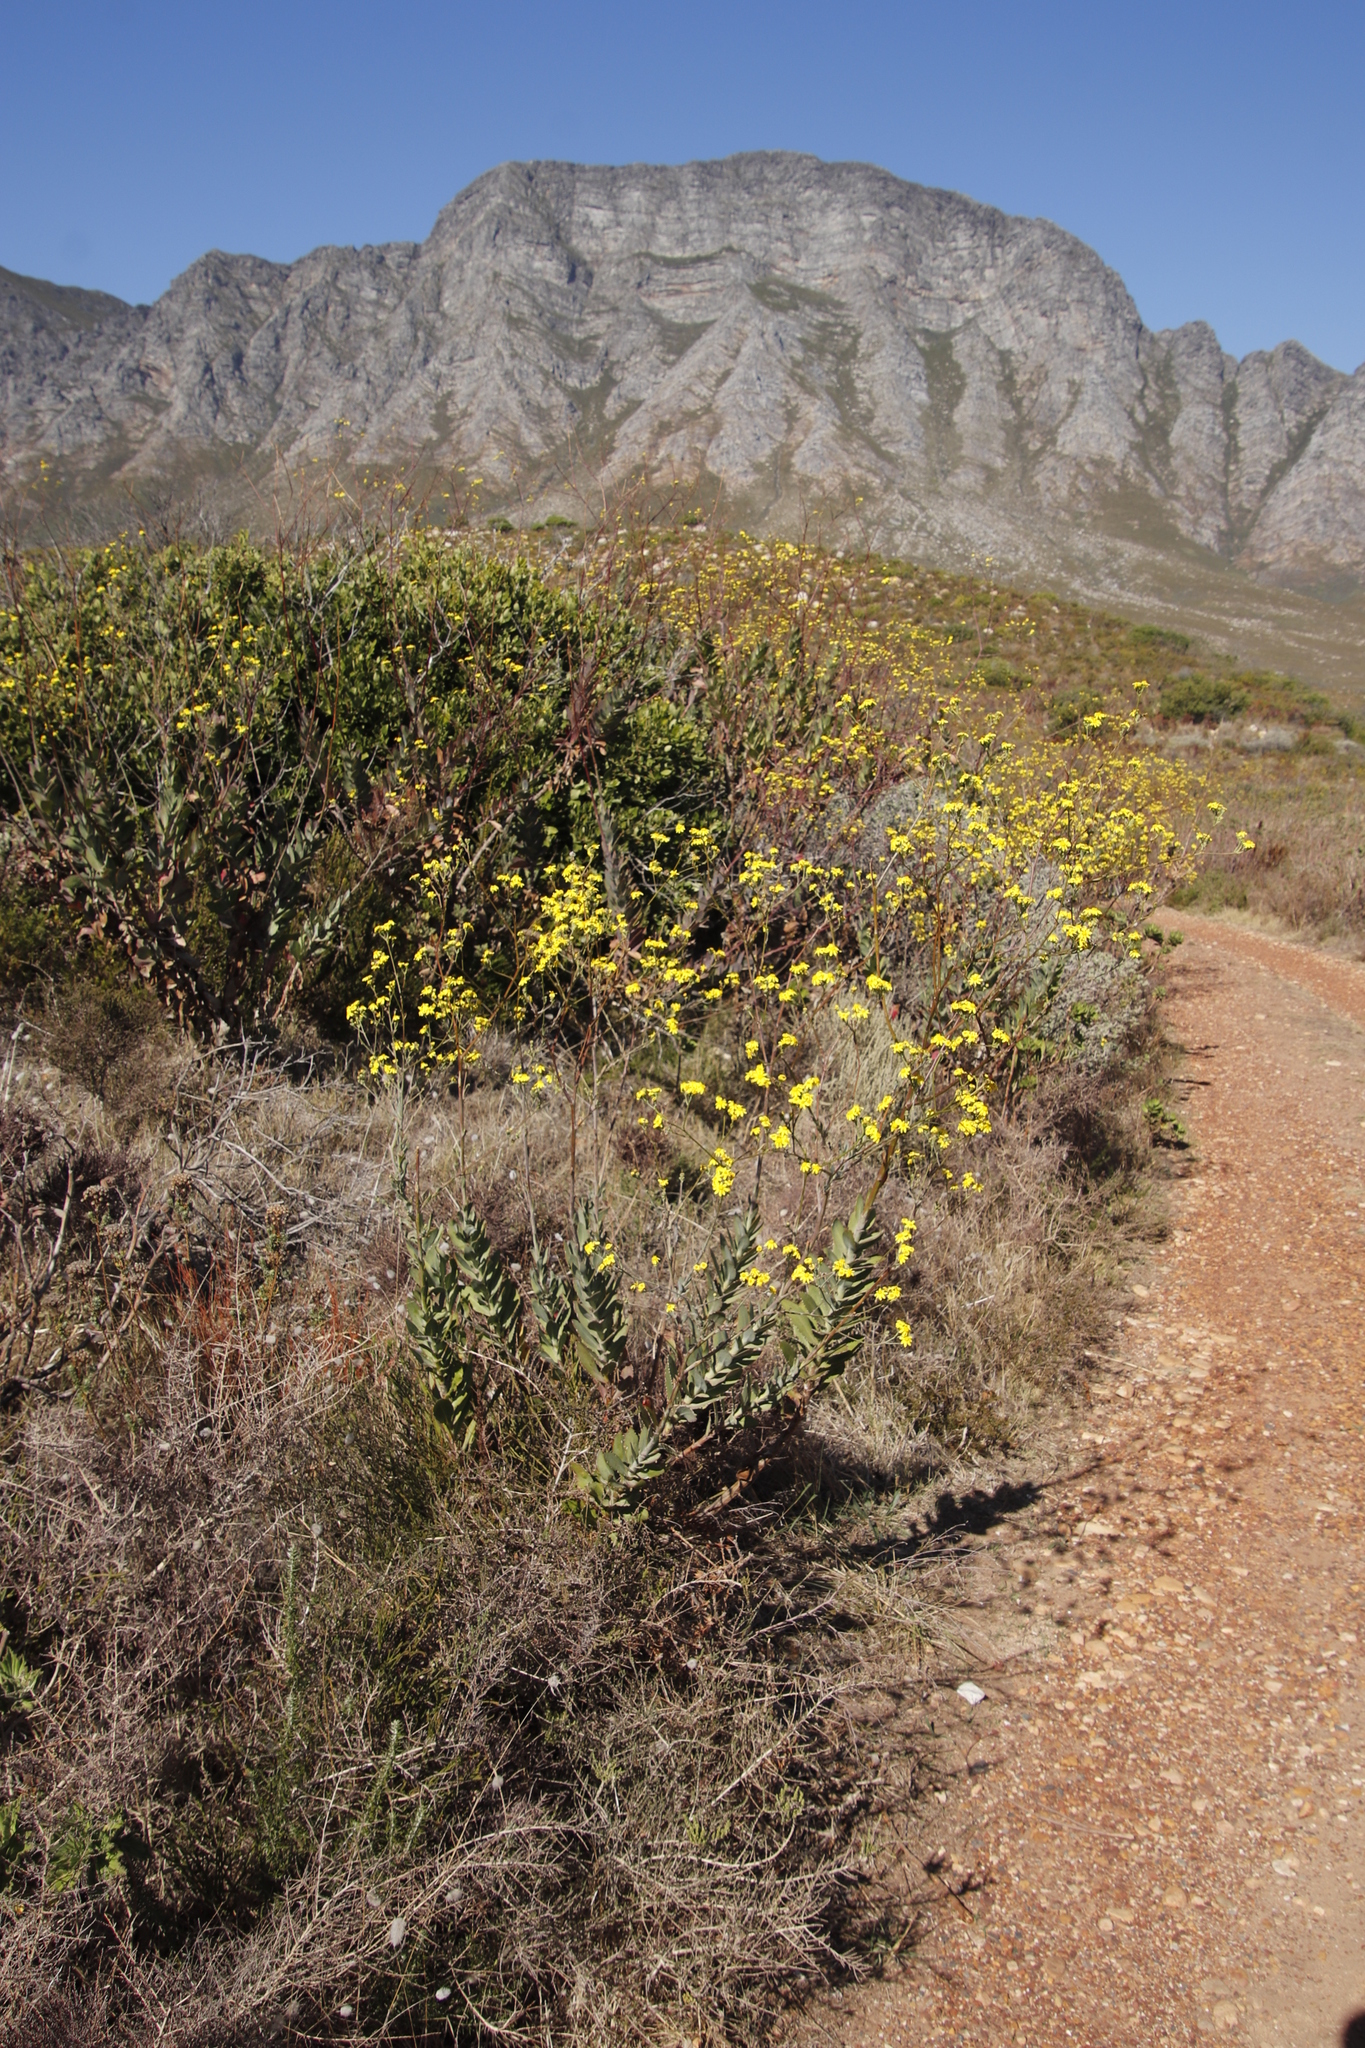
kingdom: Plantae
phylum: Tracheophyta
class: Magnoliopsida
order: Asterales
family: Asteraceae
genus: Othonna
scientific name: Othonna quinquedentata
